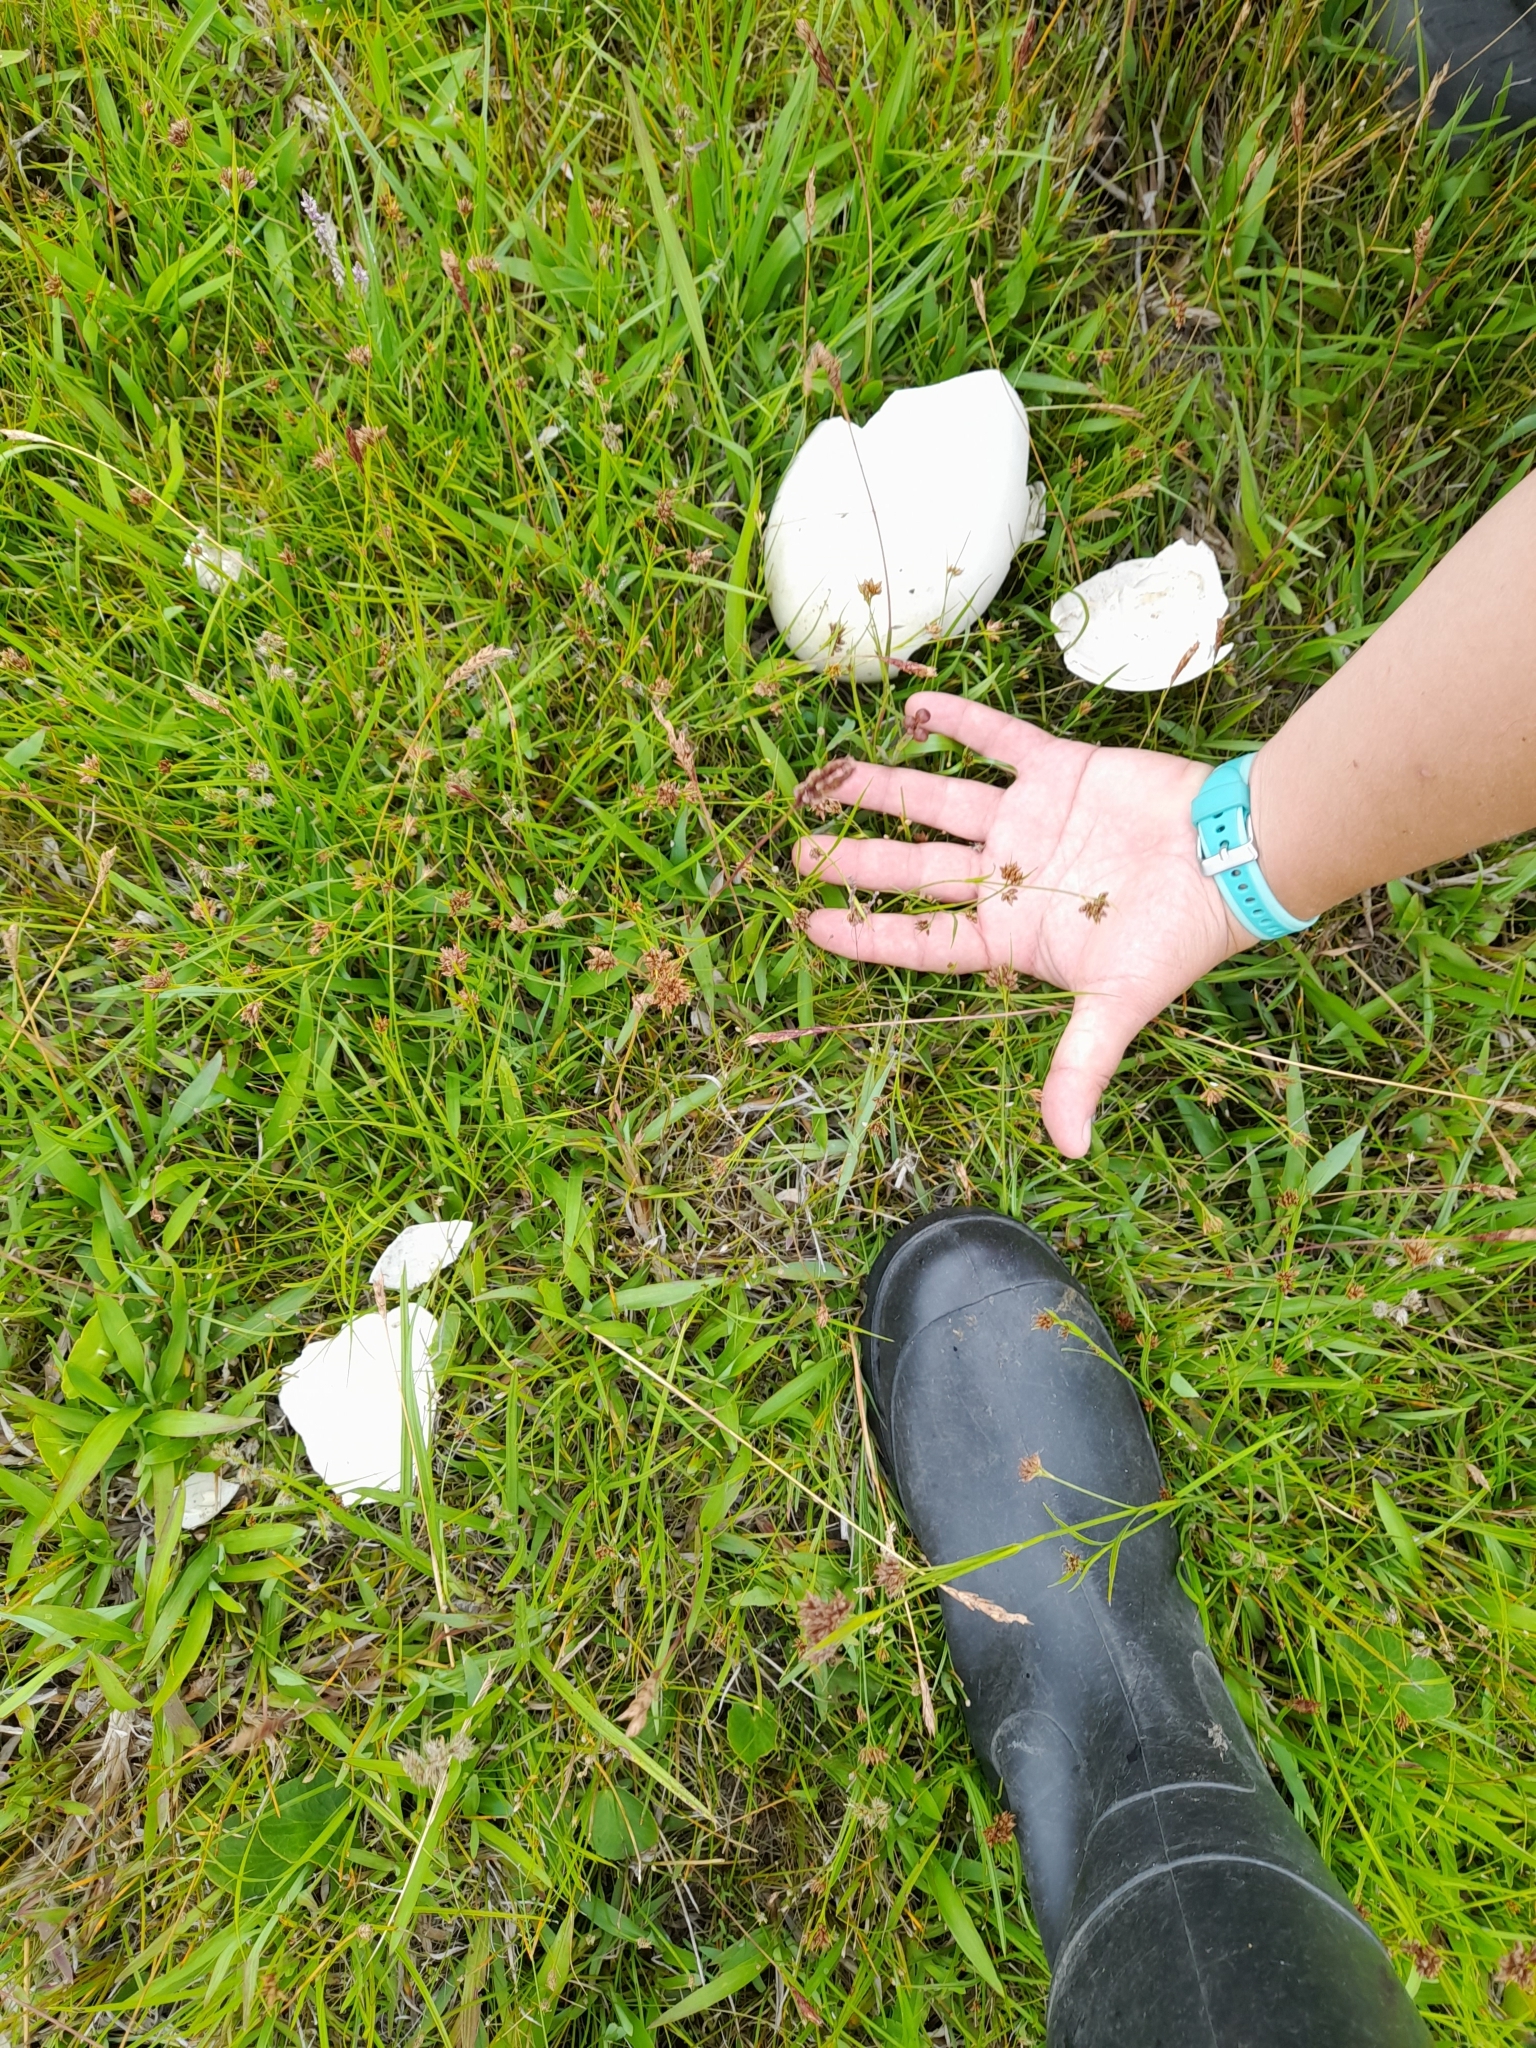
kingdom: Animalia
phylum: Chordata
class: Aves
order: Rheiformes
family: Rheidae
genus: Rhea
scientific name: Rhea americana
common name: Greater rhea
